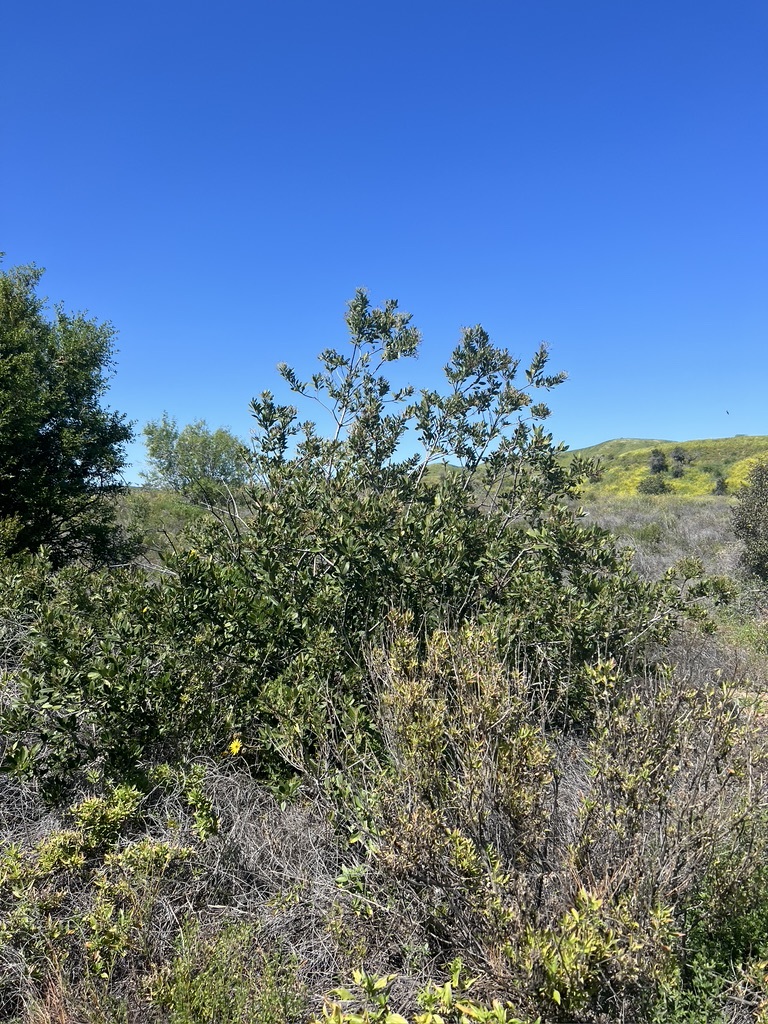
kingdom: Plantae
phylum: Tracheophyta
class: Magnoliopsida
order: Rosales
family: Rosaceae
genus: Heteromeles
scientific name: Heteromeles arbutifolia
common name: California-holly
